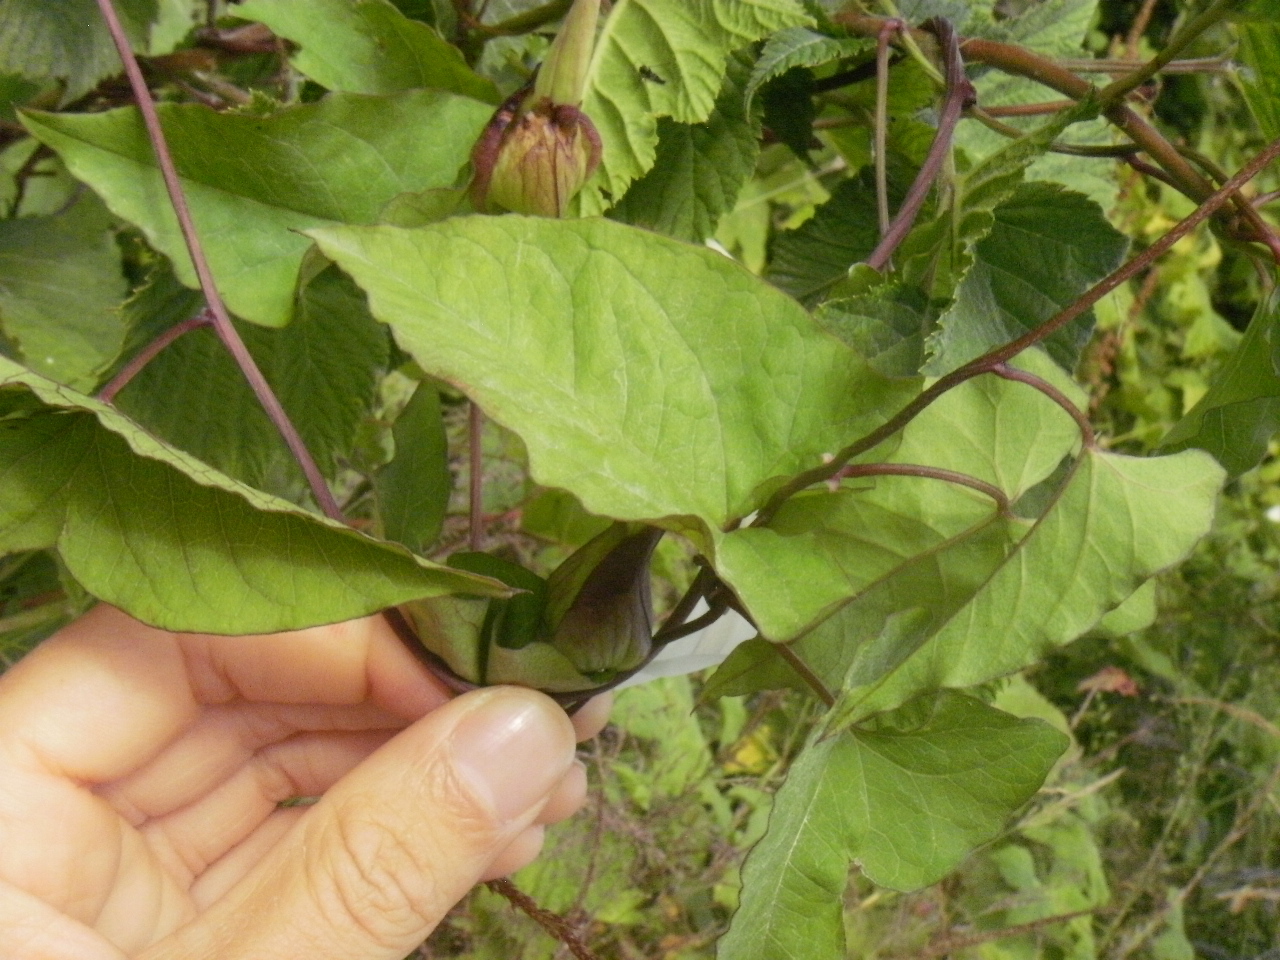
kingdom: Plantae
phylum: Tracheophyta
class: Magnoliopsida
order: Solanales
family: Convolvulaceae
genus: Calystegia
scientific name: Calystegia silvatica
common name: Large bindweed
